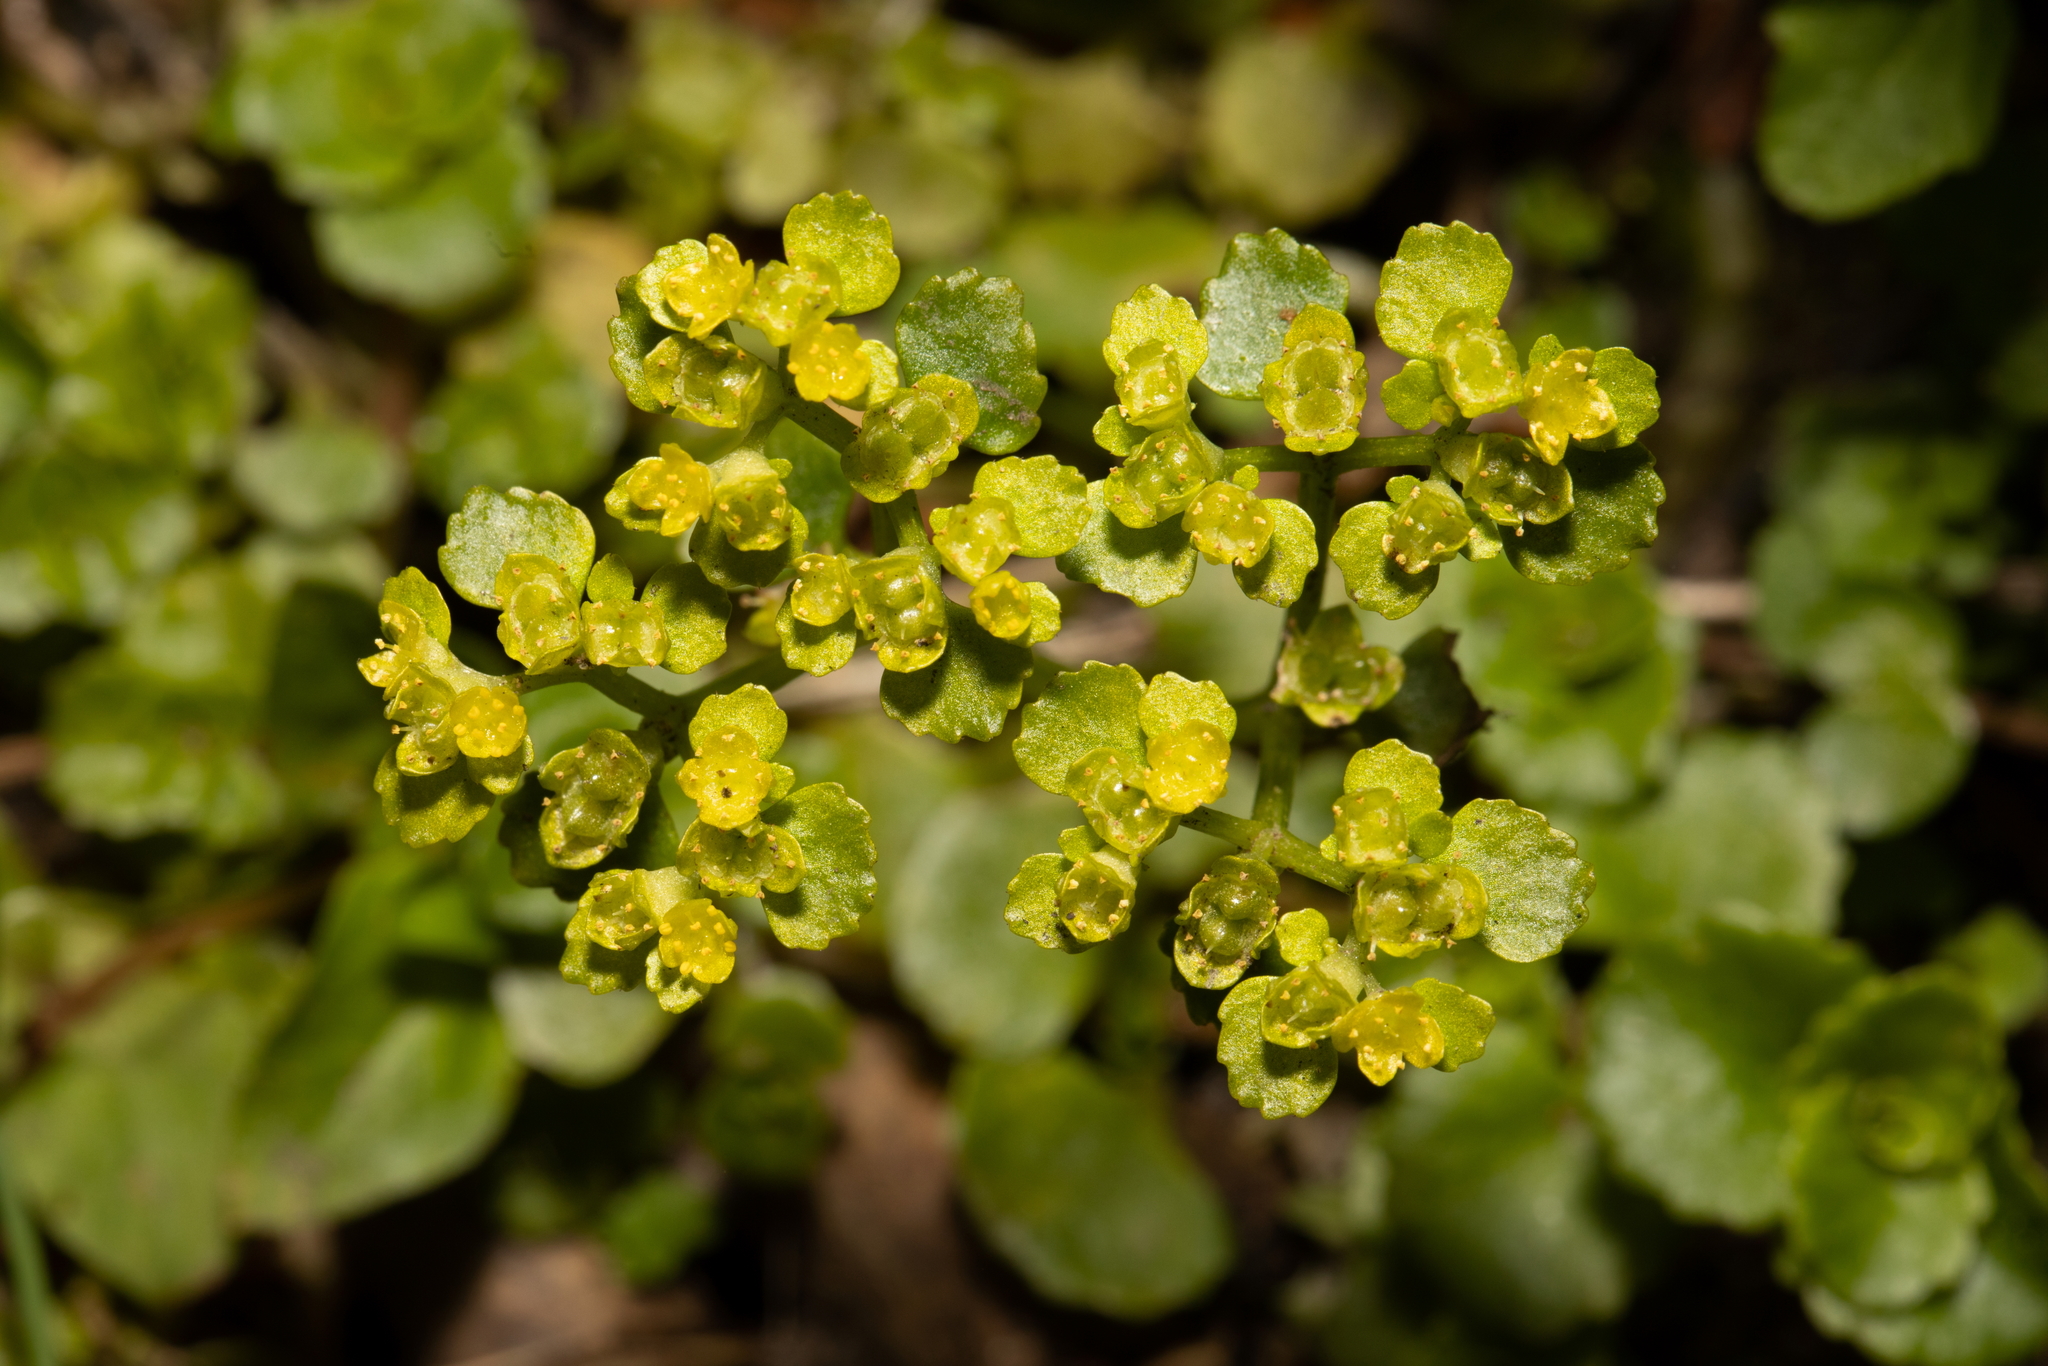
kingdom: Plantae
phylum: Tracheophyta
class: Magnoliopsida
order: Saxifragales
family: Saxifragaceae
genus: Chrysosplenium
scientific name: Chrysosplenium oppositifolium
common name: Opposite-leaved golden-saxifrage
